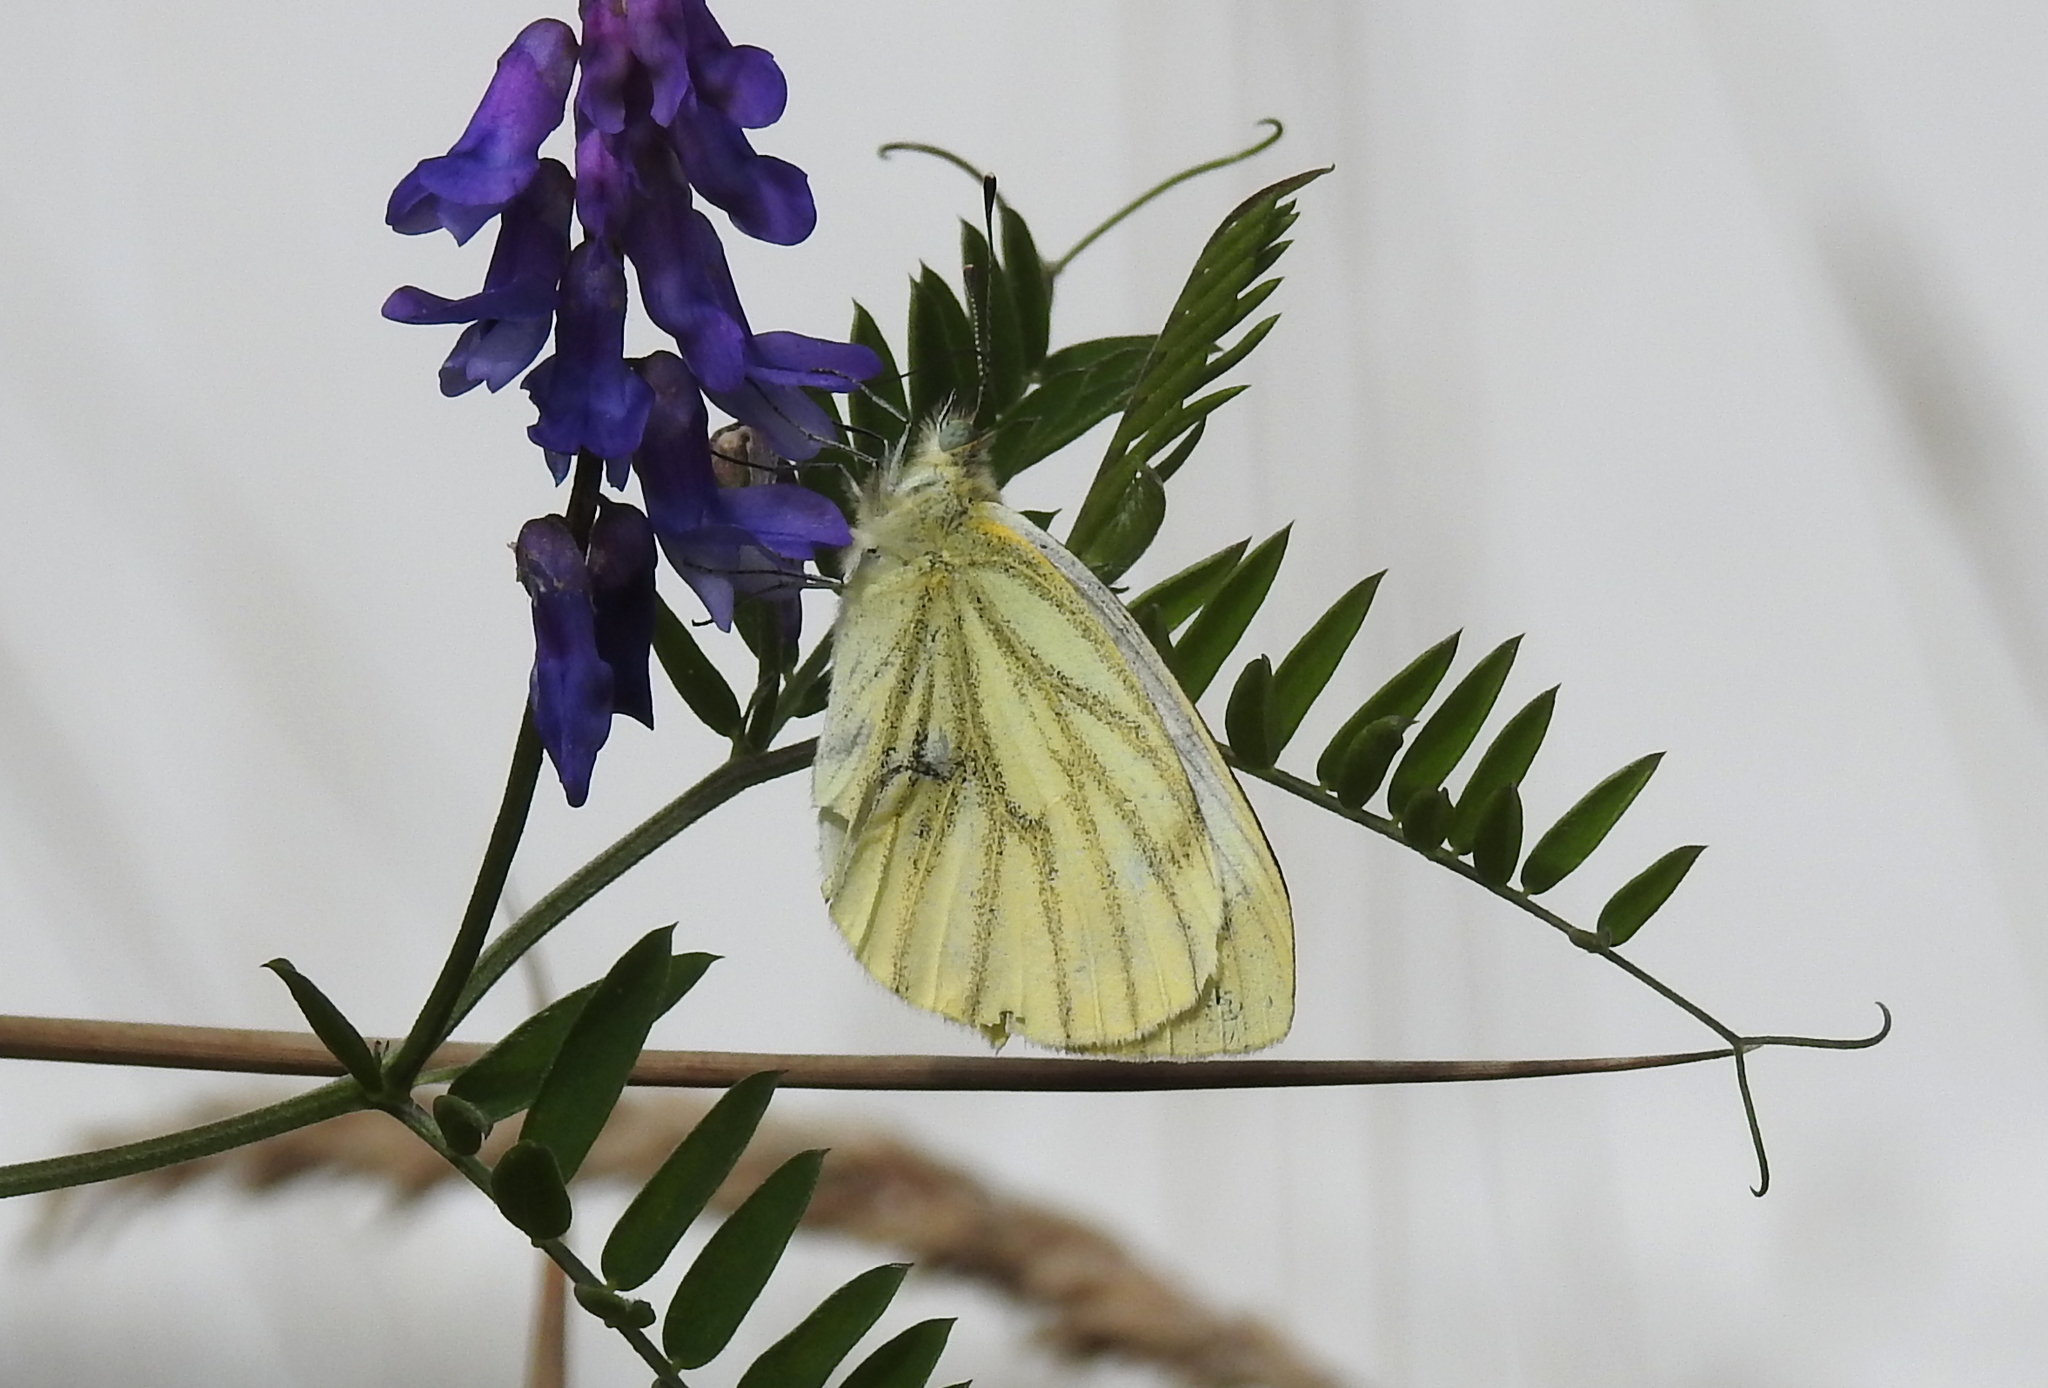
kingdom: Animalia
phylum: Arthropoda
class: Insecta
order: Lepidoptera
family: Pieridae
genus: Pieris
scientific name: Pieris napi
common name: Green-veined white
